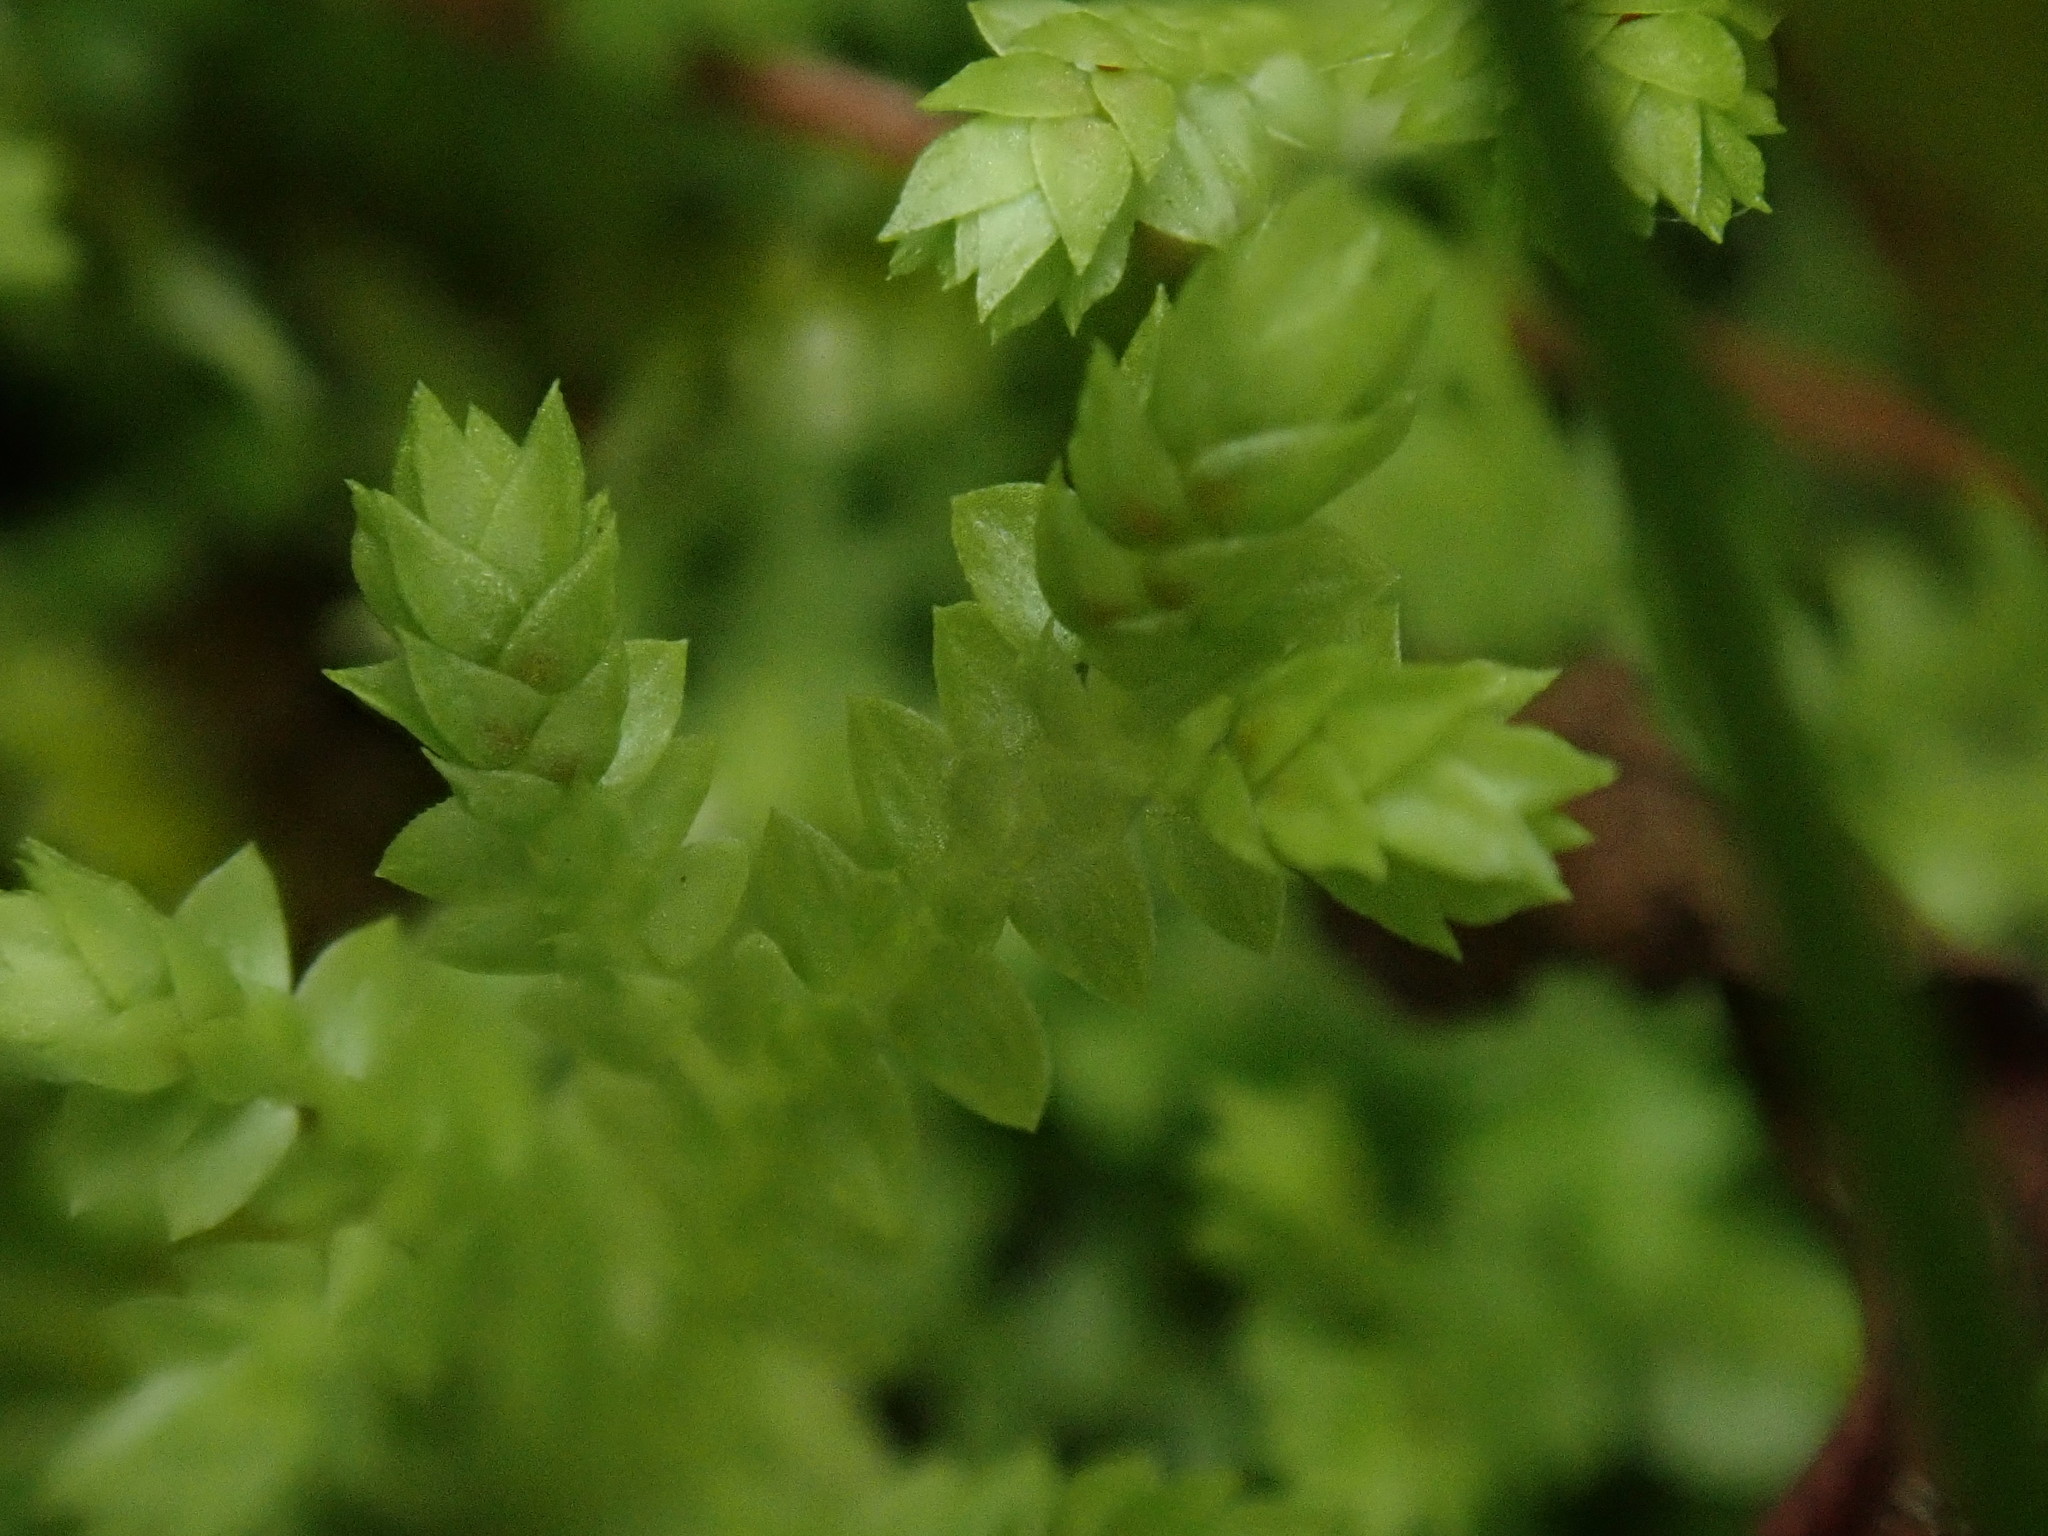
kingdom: Plantae
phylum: Tracheophyta
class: Lycopodiopsida
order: Selaginellales
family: Selaginellaceae
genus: Selaginella
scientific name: Selaginella apoda
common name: Creeping spikemoss
